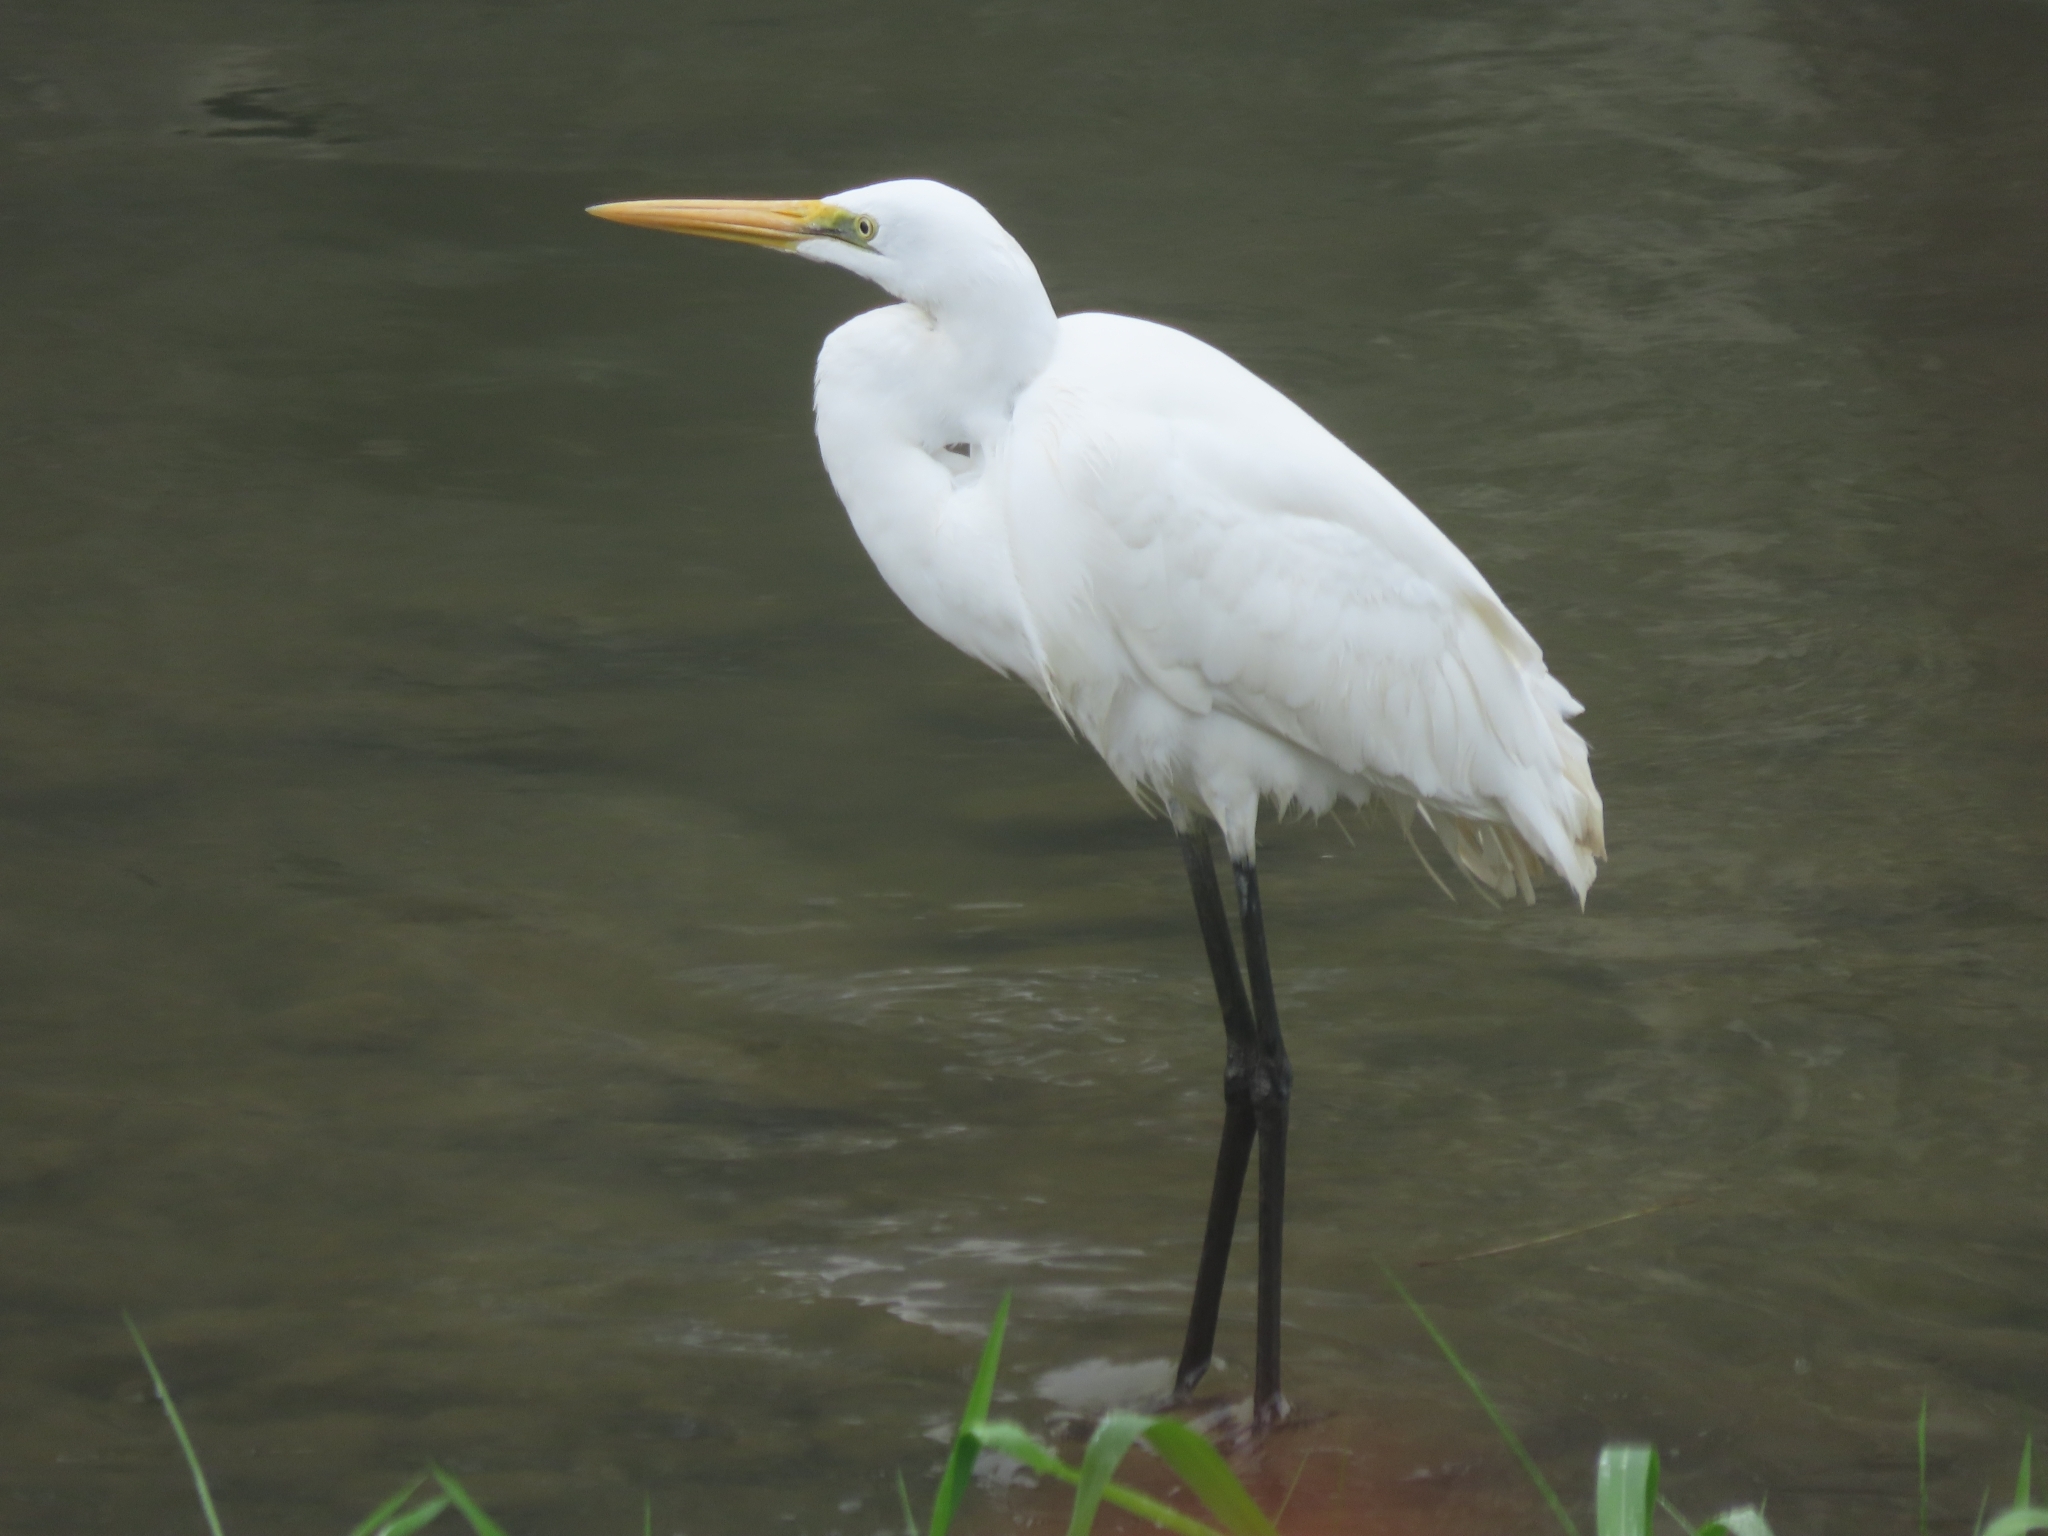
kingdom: Animalia
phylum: Chordata
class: Aves
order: Pelecaniformes
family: Ardeidae
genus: Ardea
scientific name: Ardea alba
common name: Great egret
